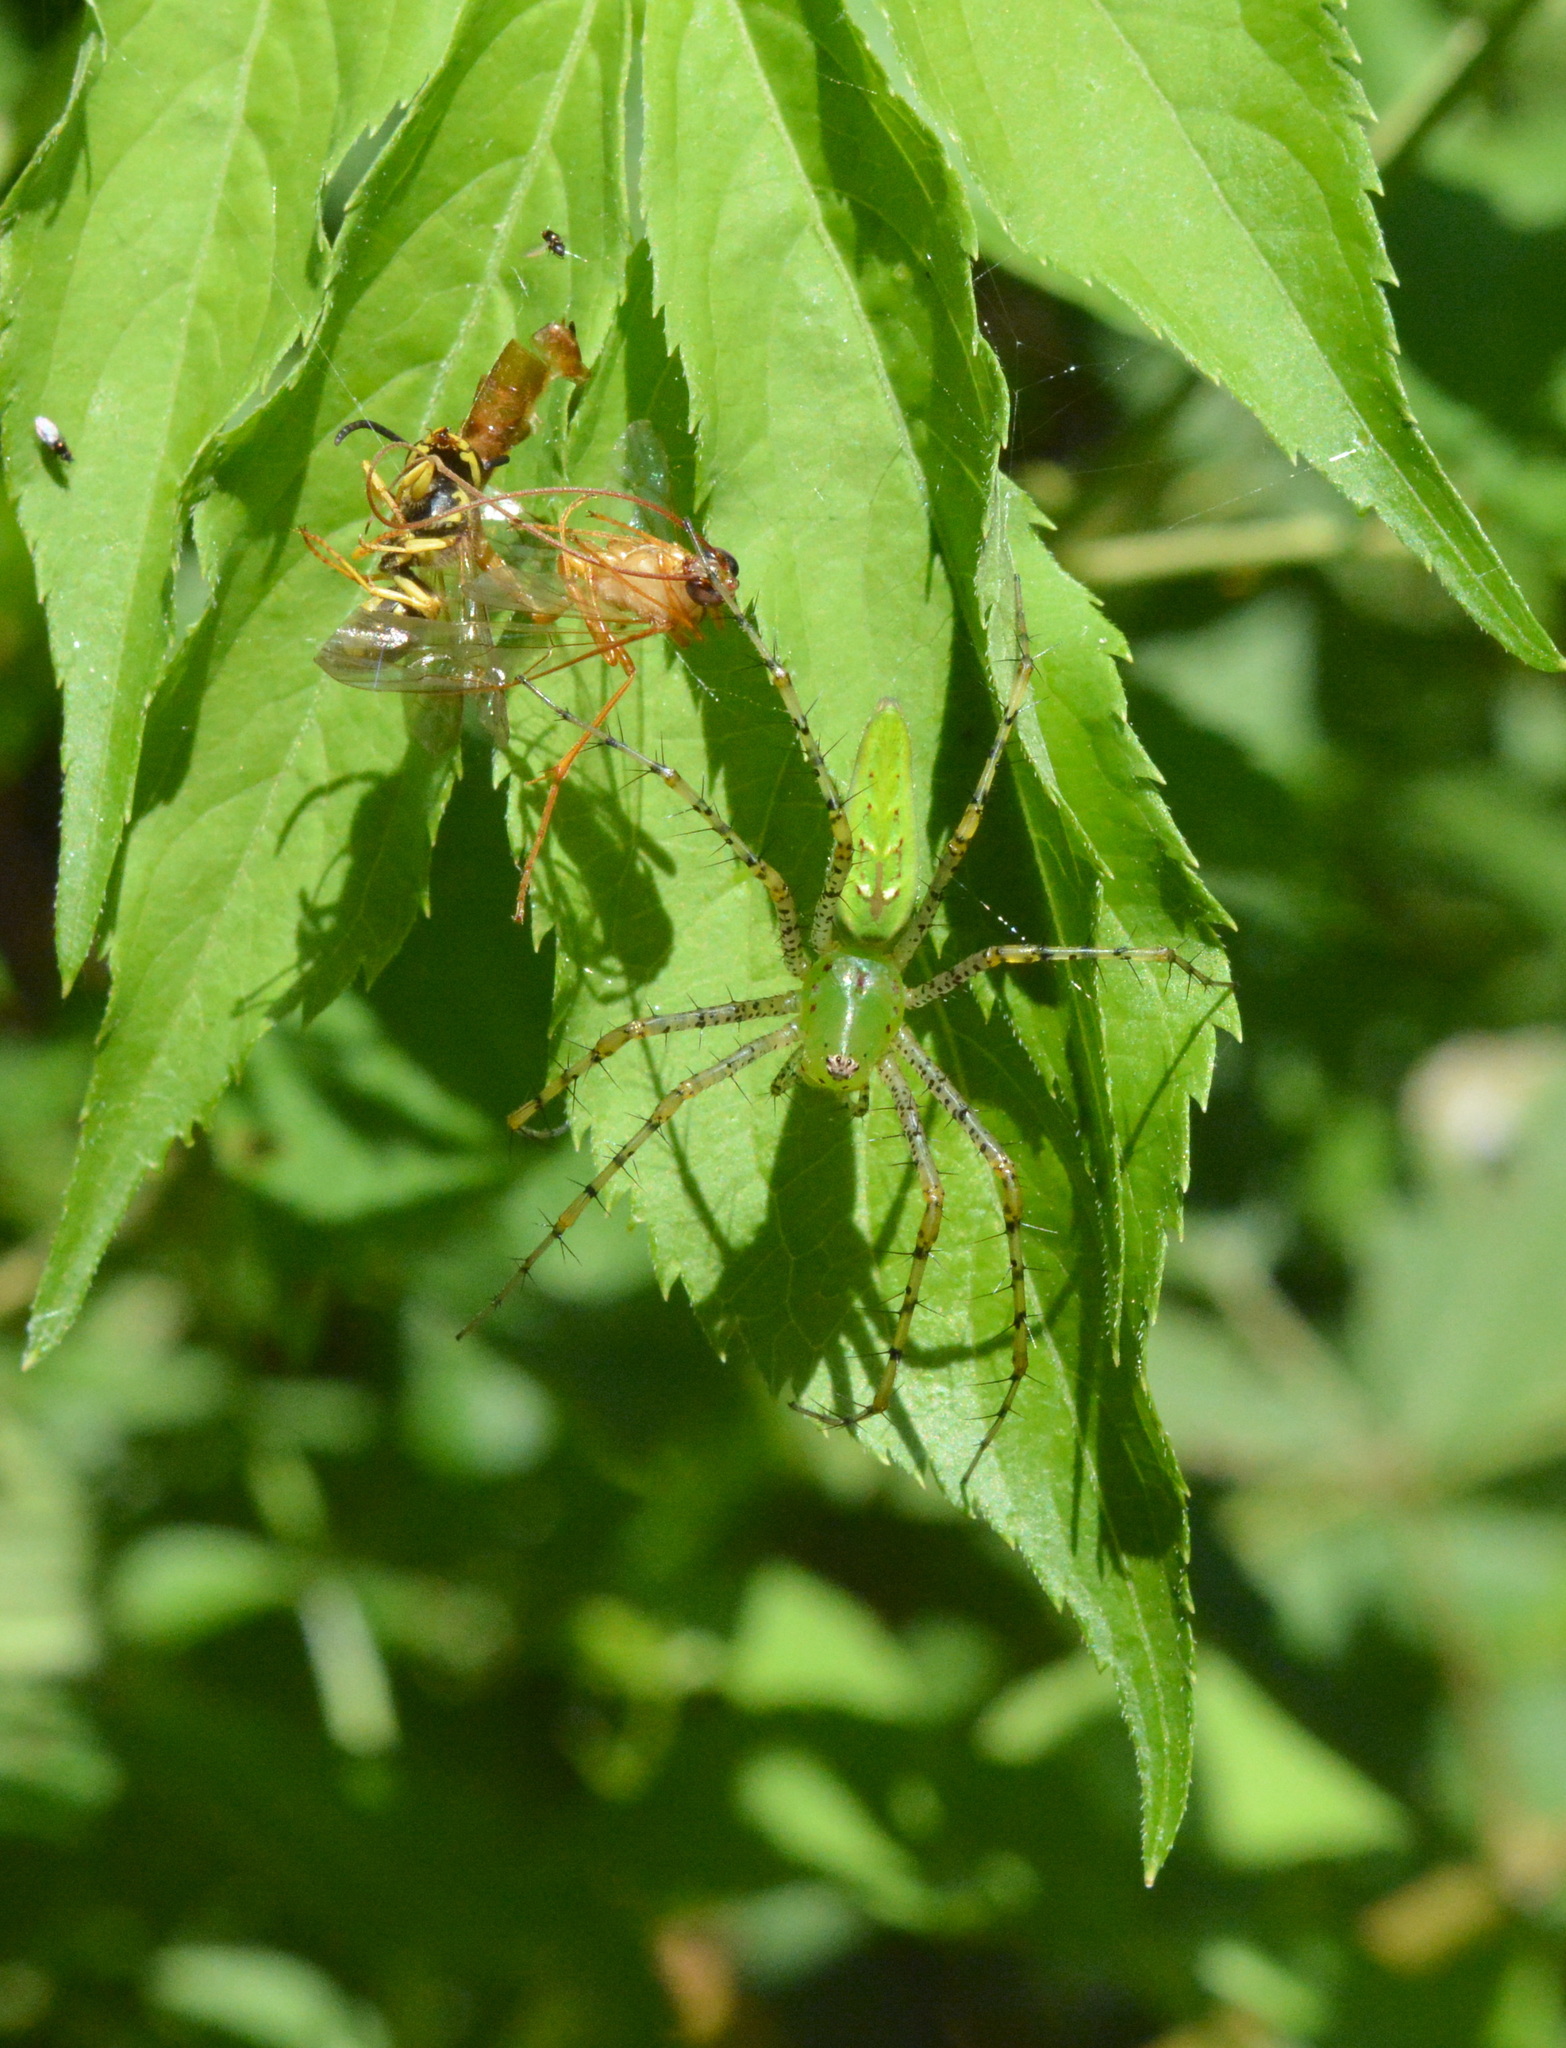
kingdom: Animalia
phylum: Arthropoda
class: Arachnida
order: Araneae
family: Oxyopidae
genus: Peucetia
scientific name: Peucetia viridans
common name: Lynx spiders
